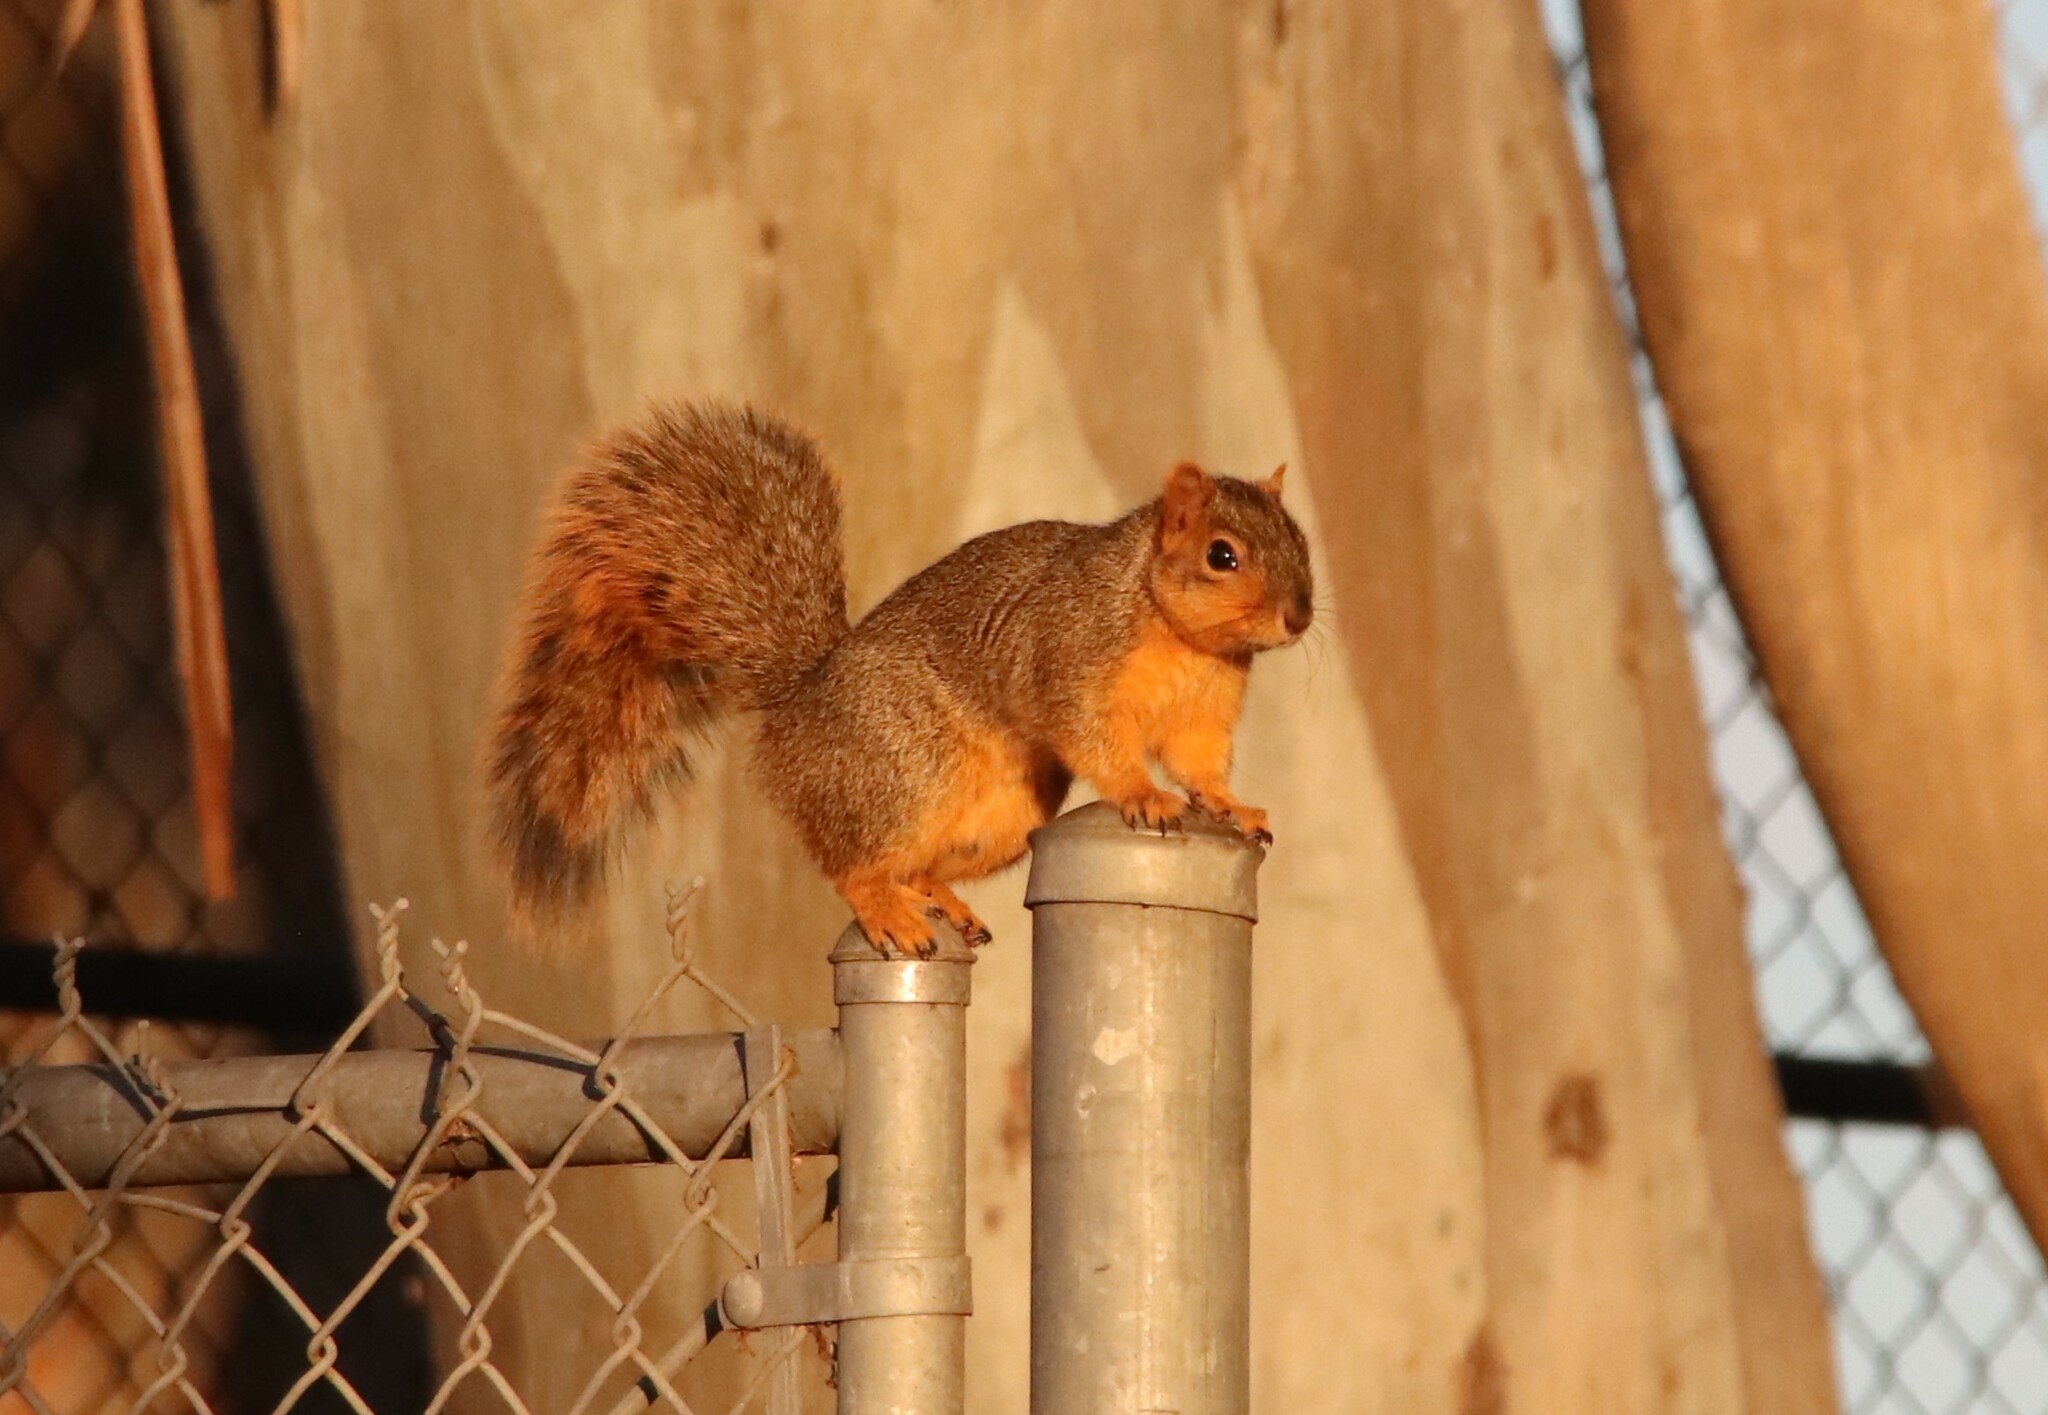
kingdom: Animalia
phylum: Chordata
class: Mammalia
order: Rodentia
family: Sciuridae
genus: Sciurus
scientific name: Sciurus niger
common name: Fox squirrel
